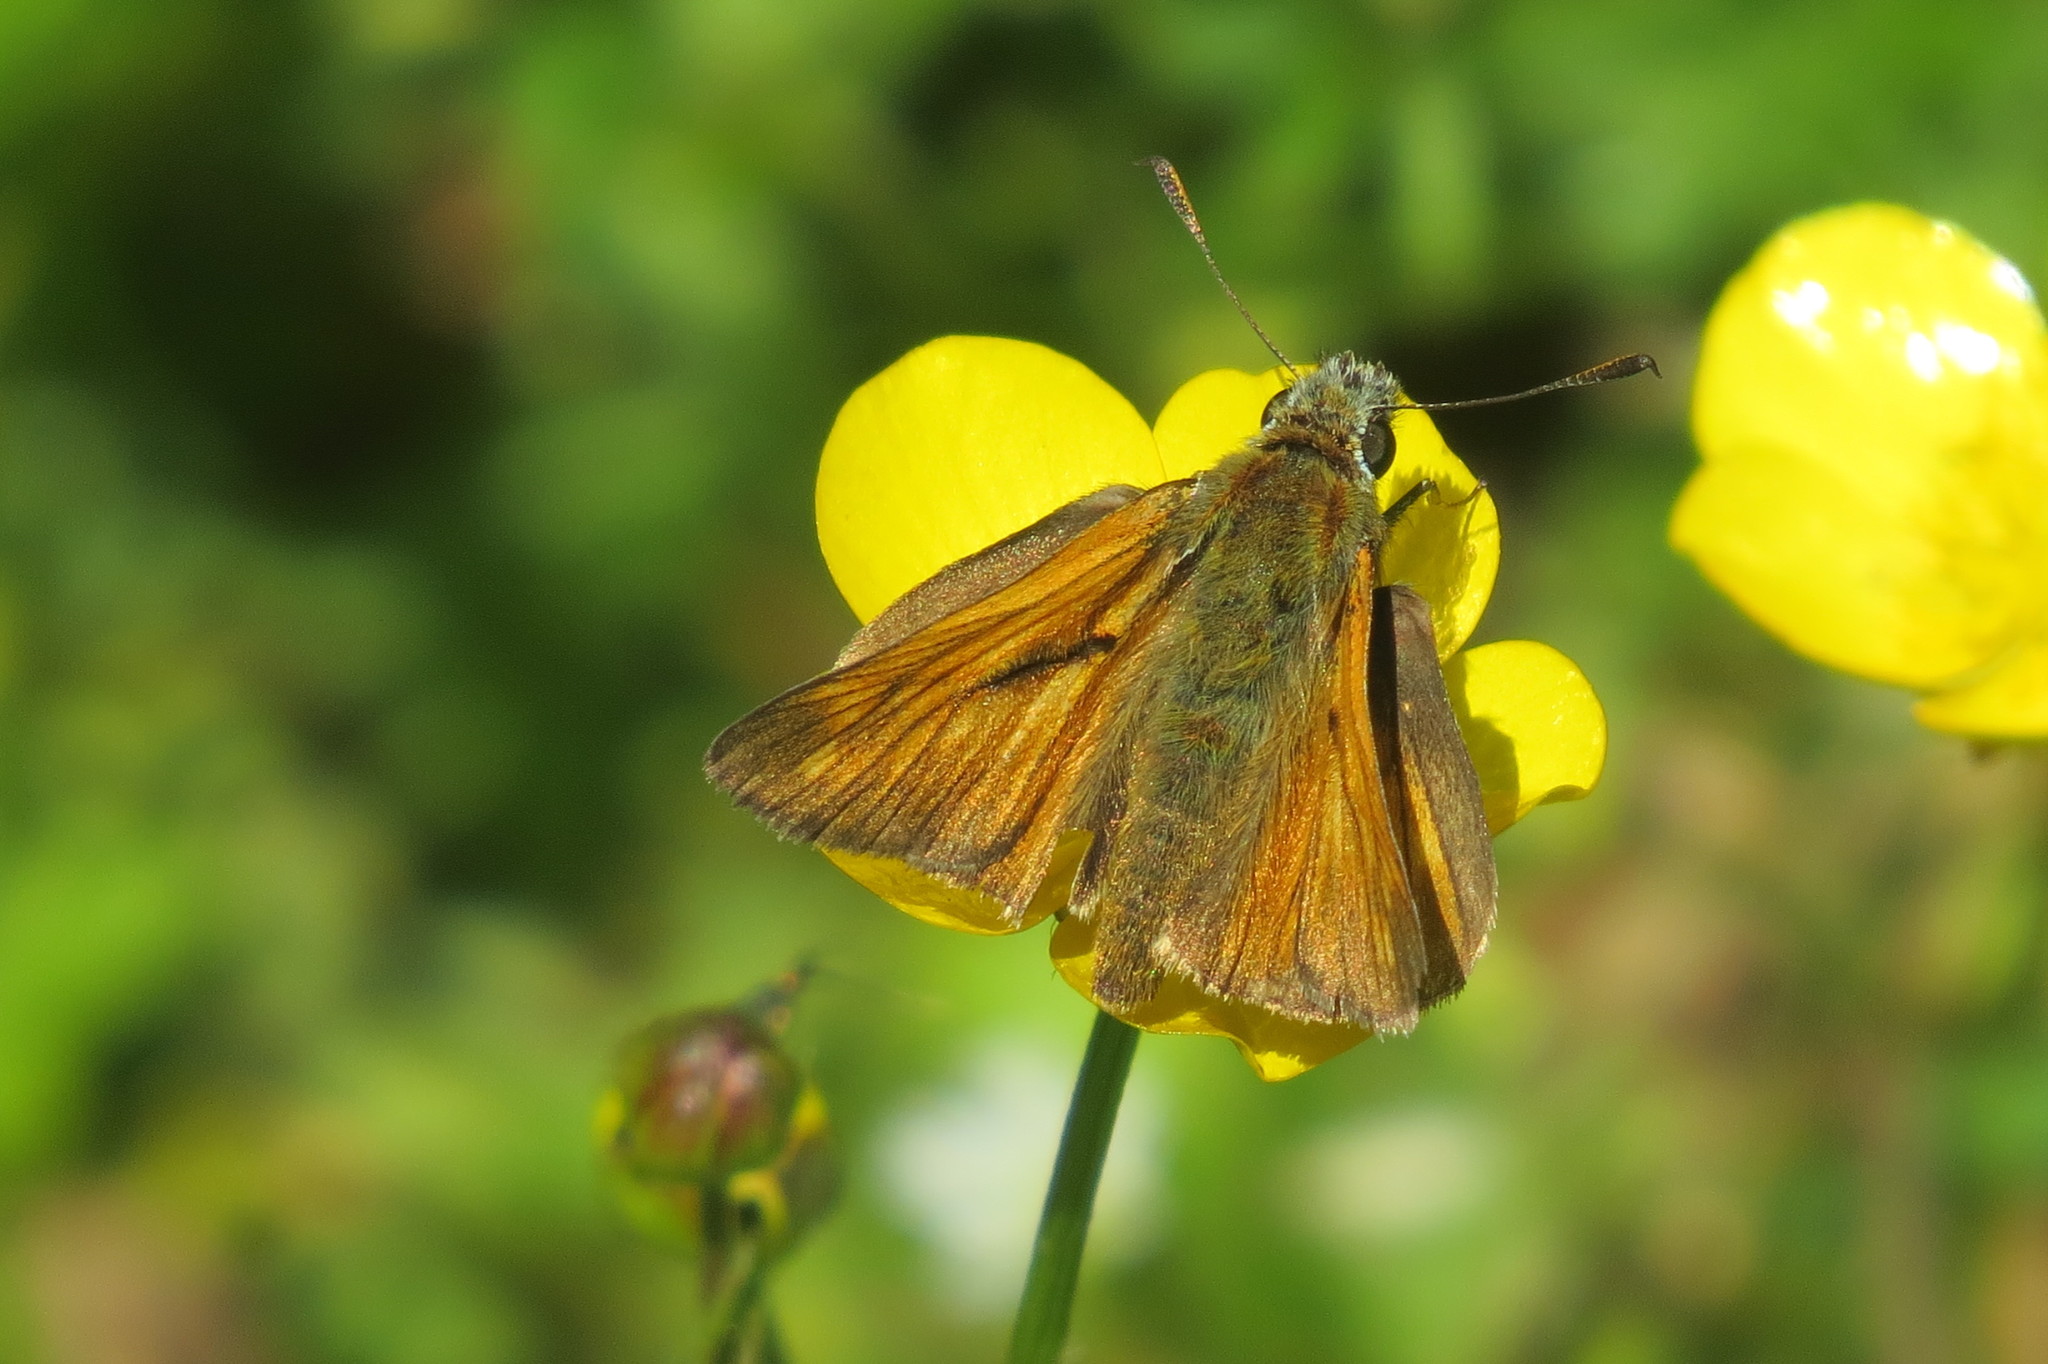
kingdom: Animalia
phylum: Arthropoda
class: Insecta
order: Lepidoptera
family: Hesperiidae
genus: Ochlodes
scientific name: Ochlodes venata
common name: Large skipper
